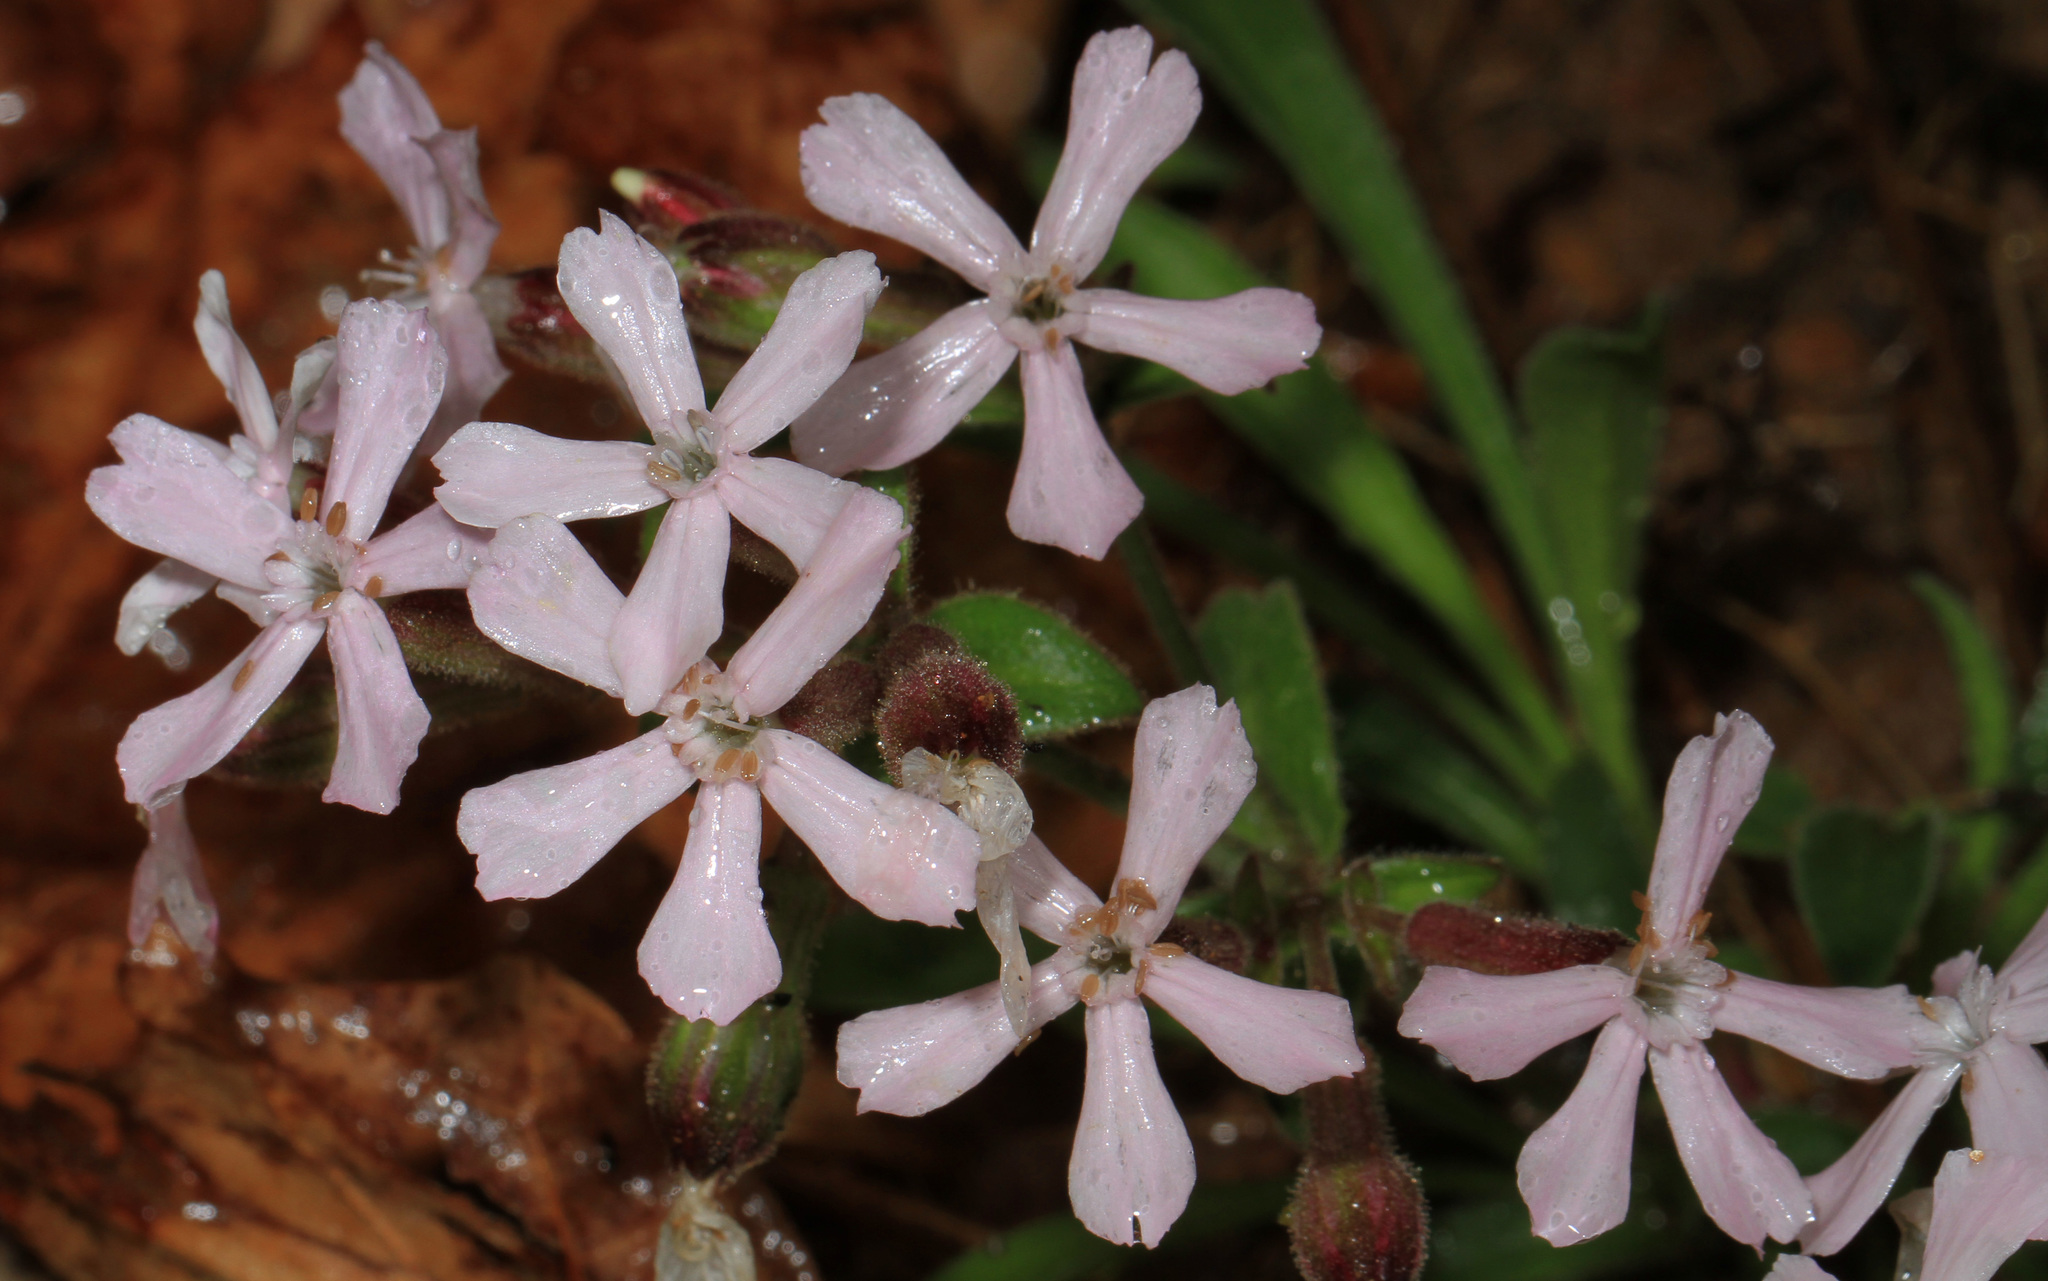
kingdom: Plantae
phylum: Tracheophyta
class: Magnoliopsida
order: Caryophyllales
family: Caryophyllaceae
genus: Silene
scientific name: Silene caroliniana
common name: Sticky catchfly
